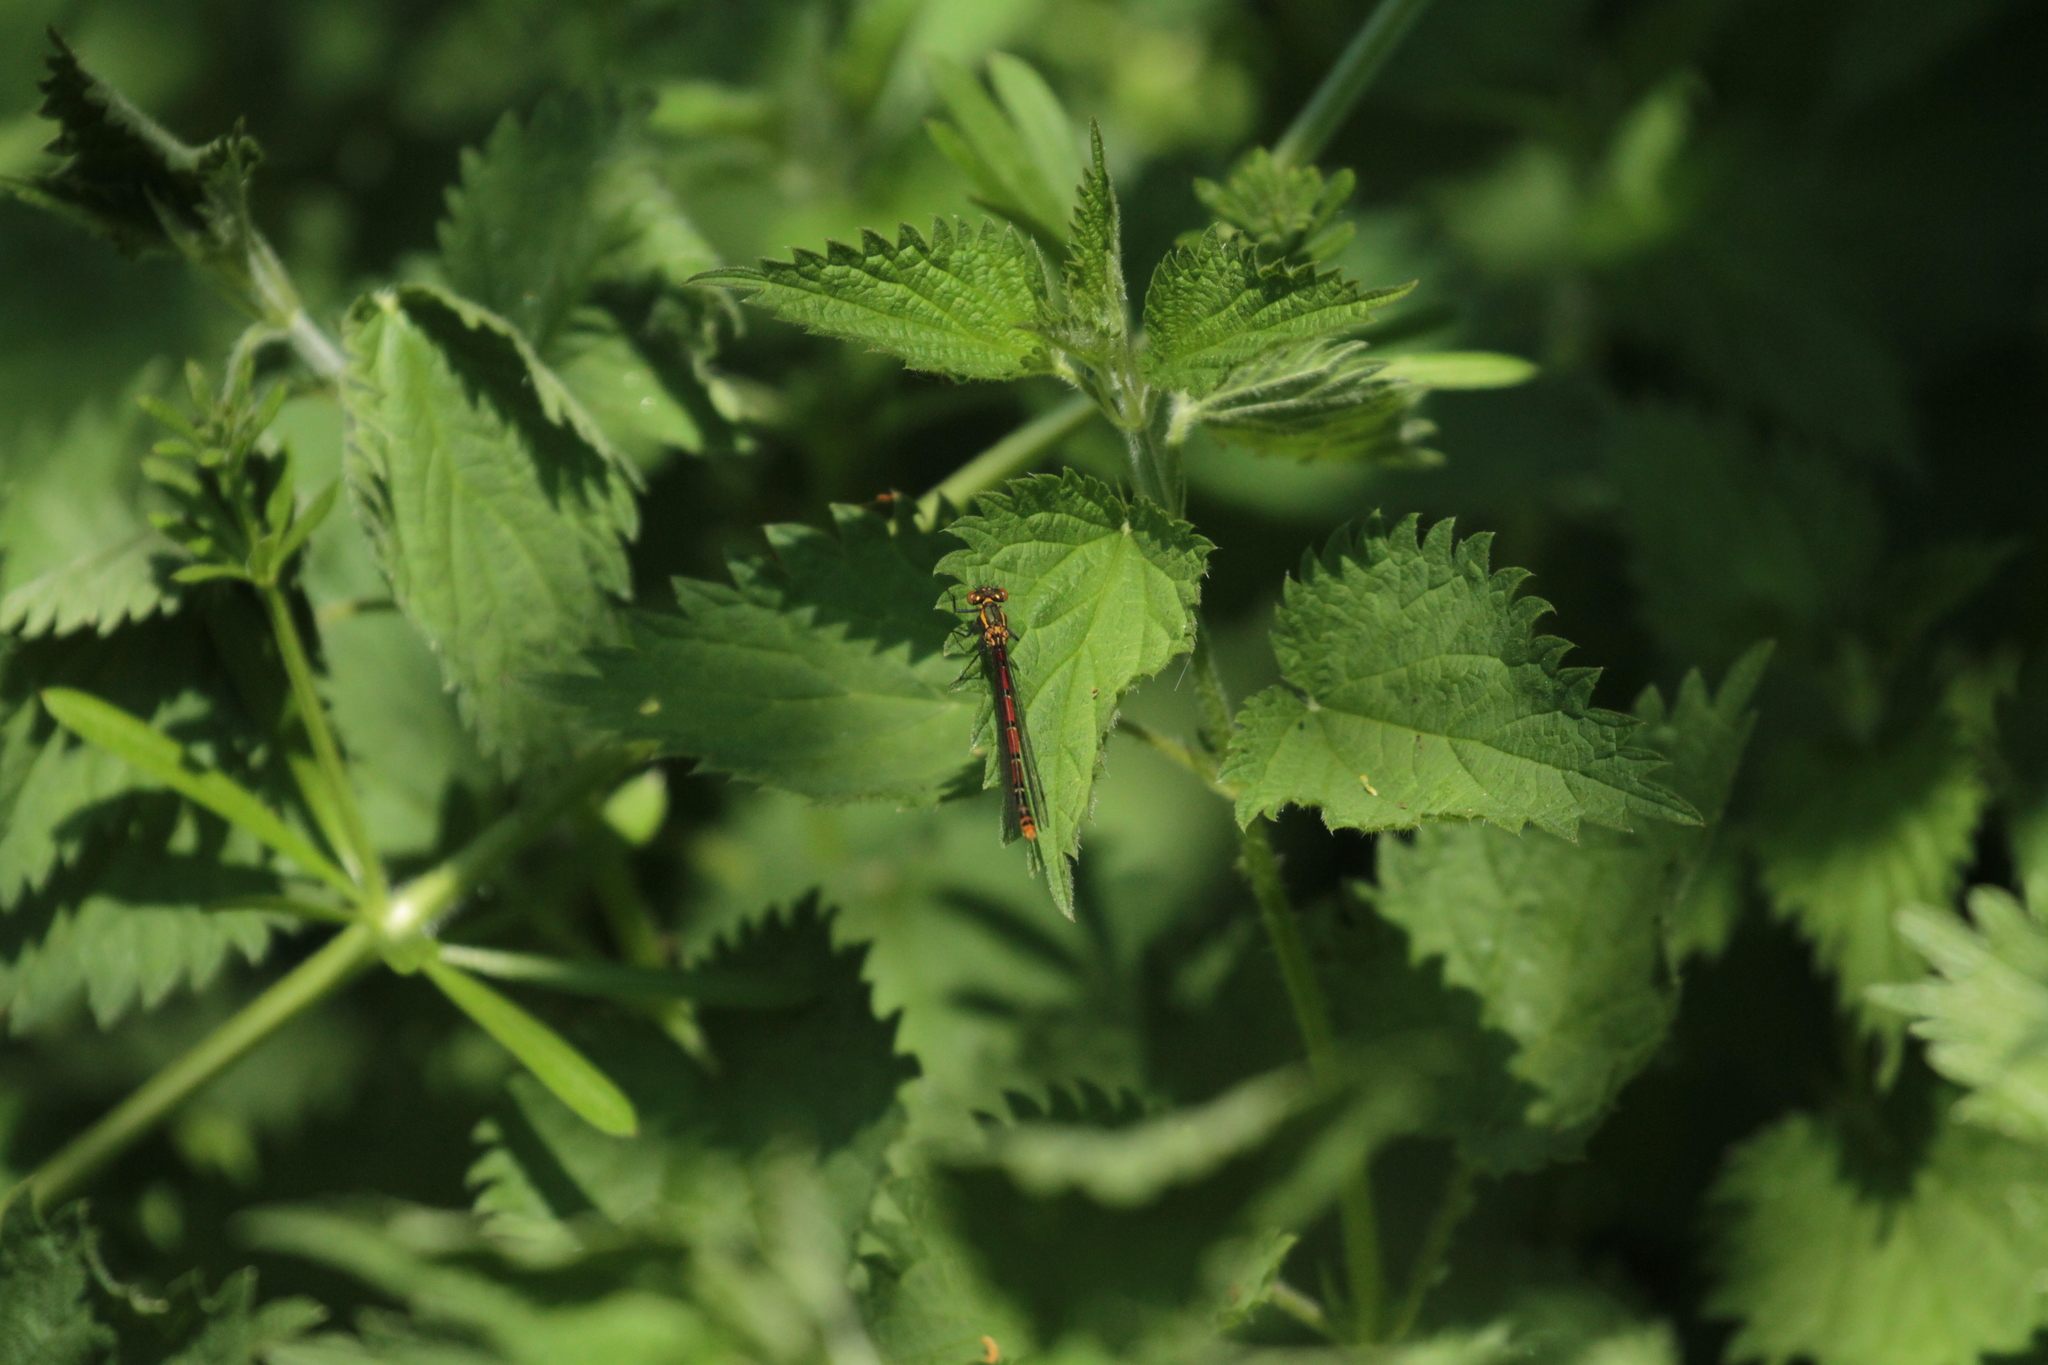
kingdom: Animalia
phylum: Arthropoda
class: Insecta
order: Odonata
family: Coenagrionidae
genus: Pyrrhosoma
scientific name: Pyrrhosoma nymphula
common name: Large red damsel
